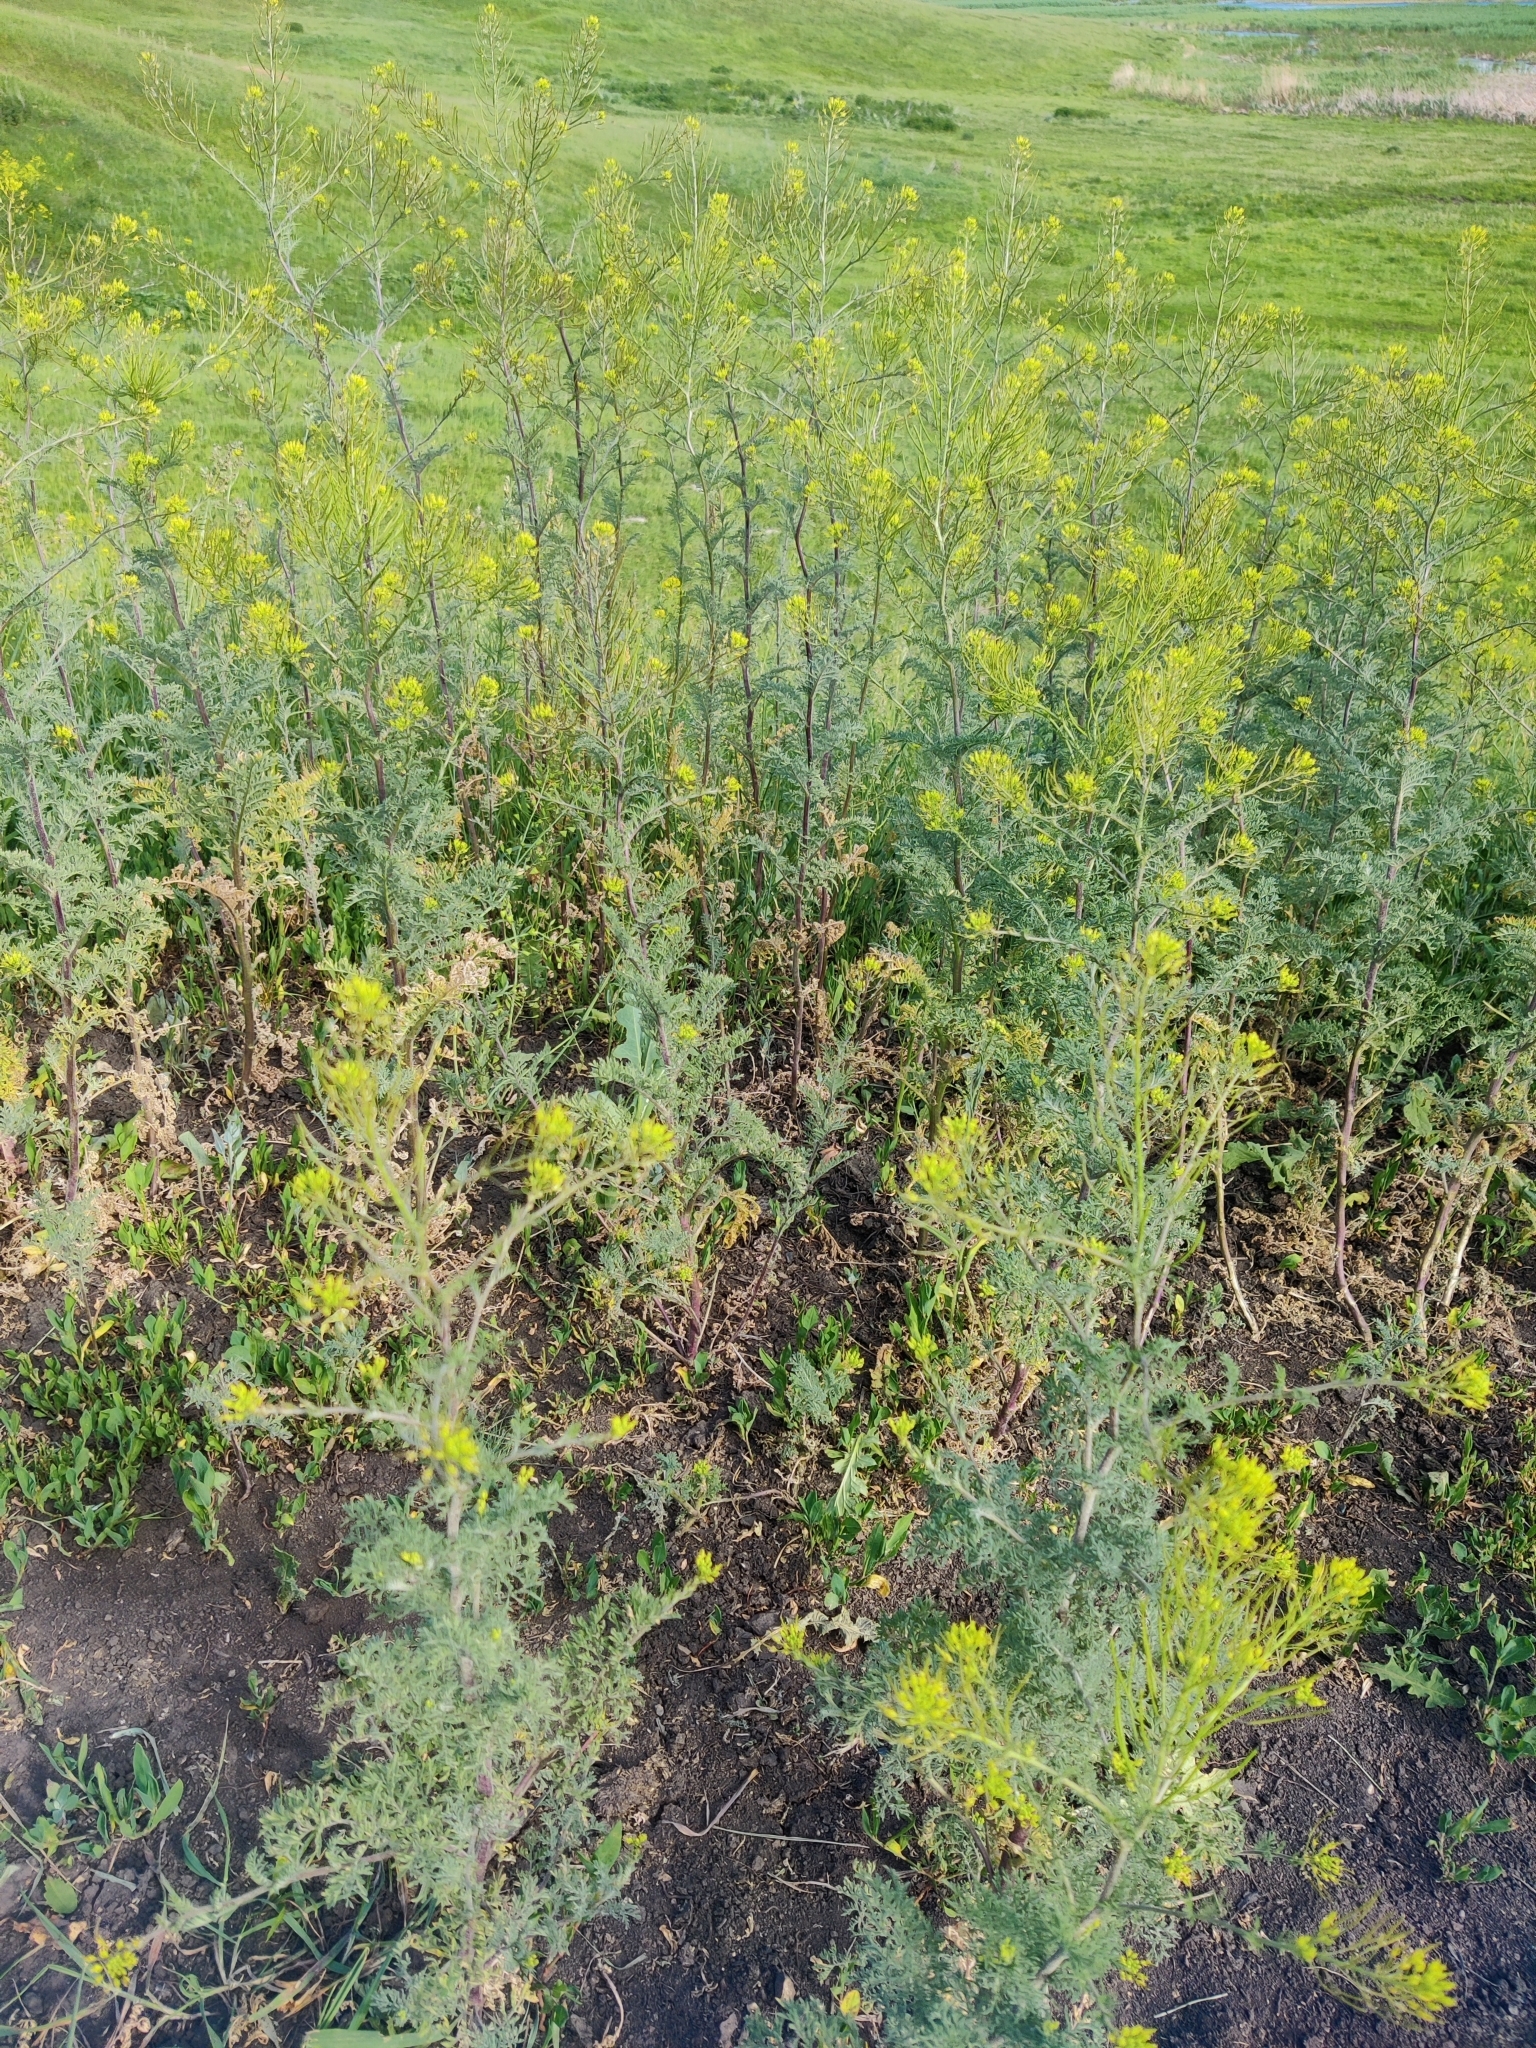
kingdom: Plantae
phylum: Tracheophyta
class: Magnoliopsida
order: Brassicales
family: Brassicaceae
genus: Descurainia
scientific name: Descurainia sophia
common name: Flixweed
